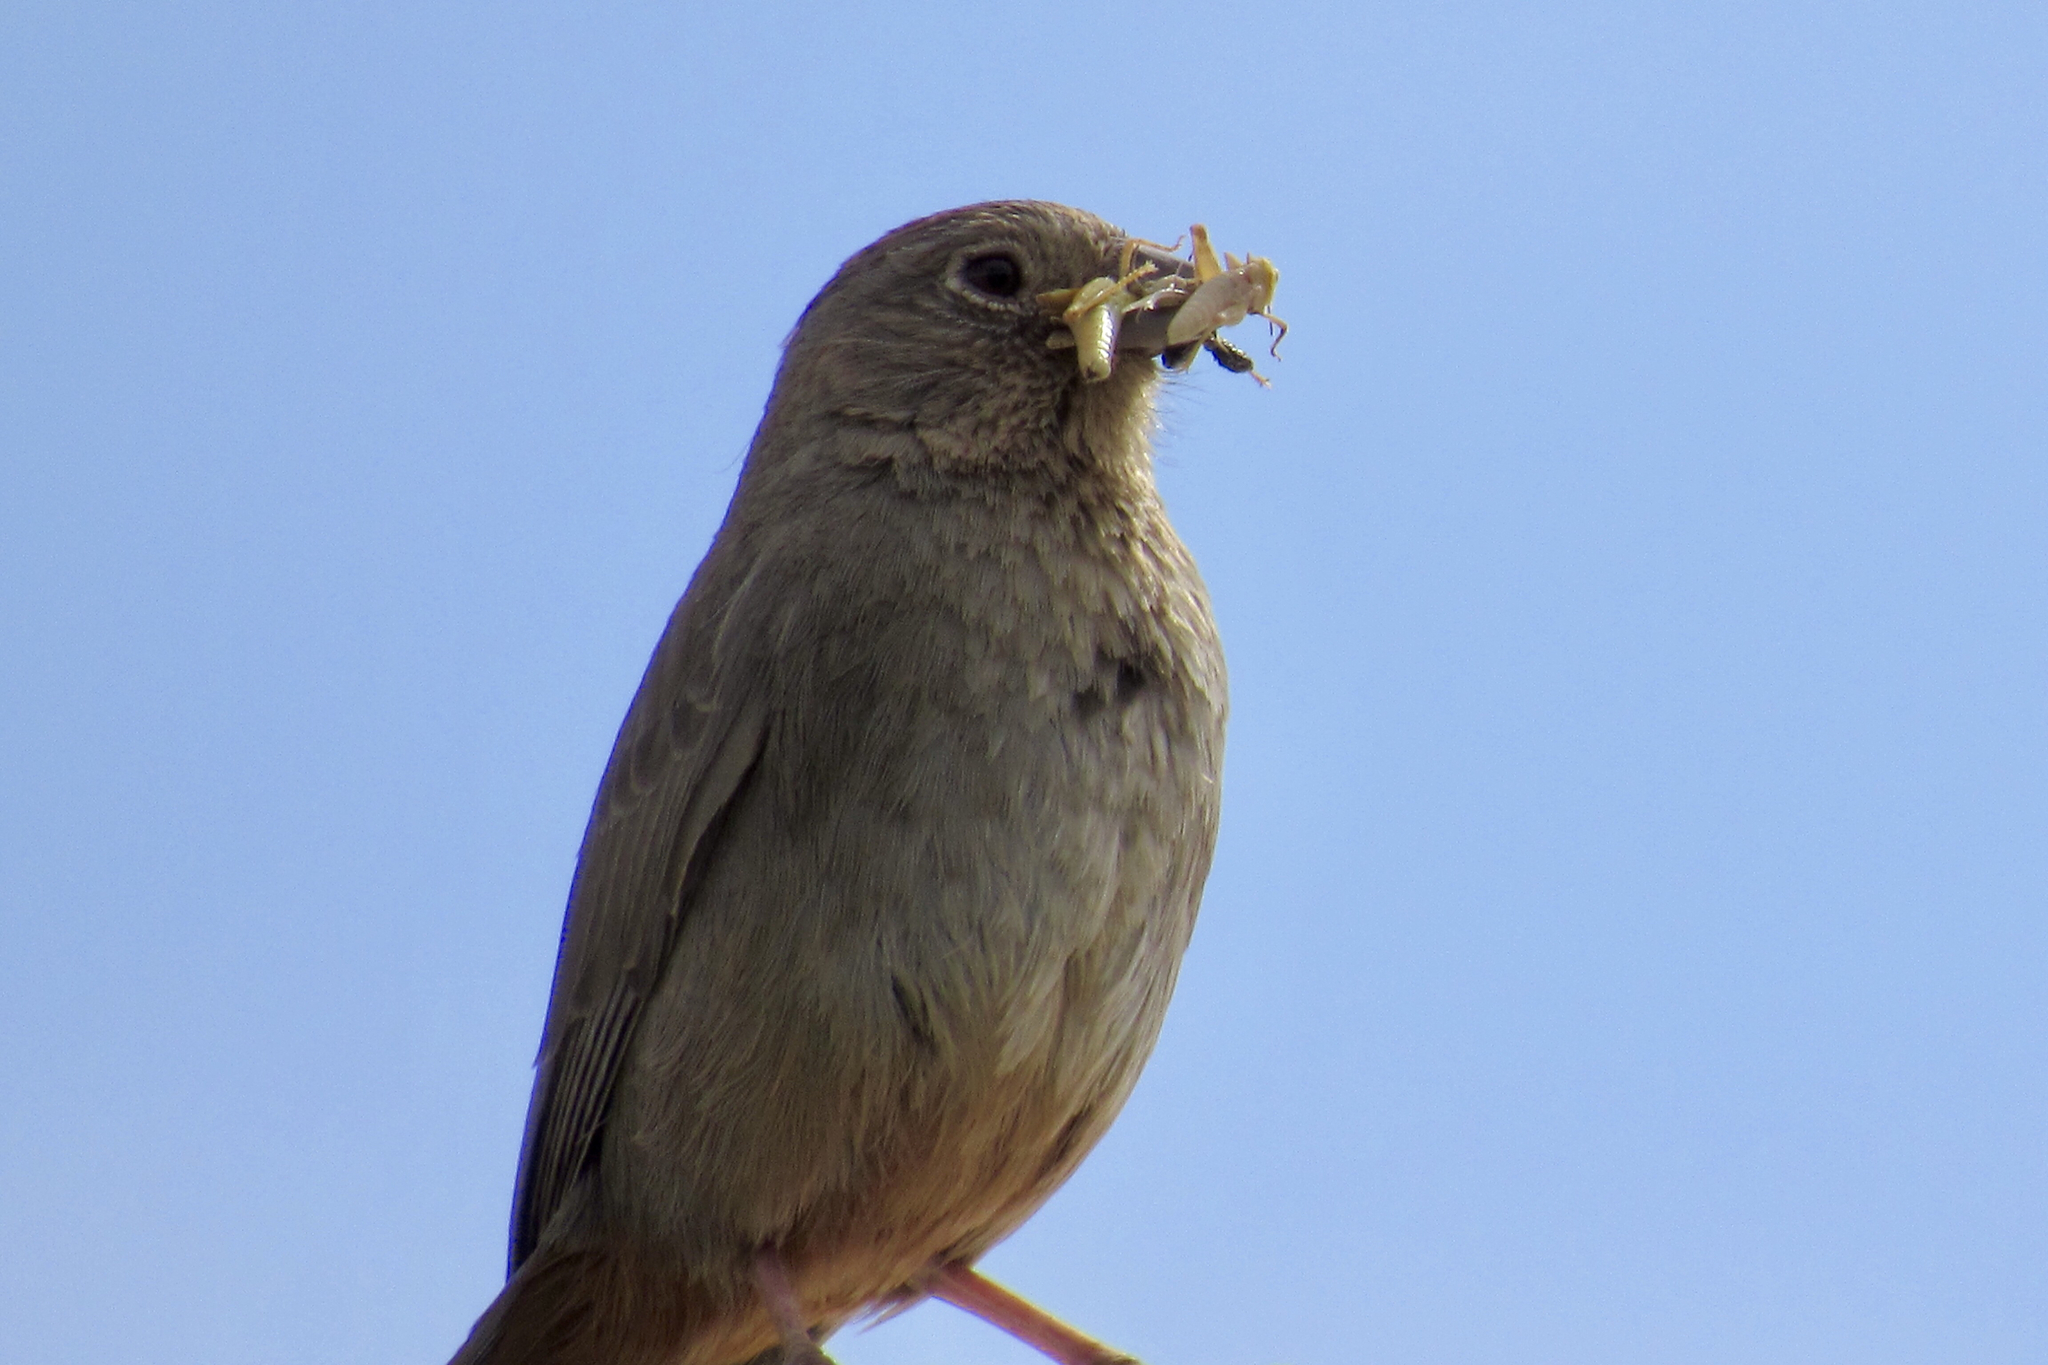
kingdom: Animalia
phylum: Chordata
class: Aves
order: Passeriformes
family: Passerellidae
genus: Melozone
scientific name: Melozone fusca
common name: Canyon towhee
